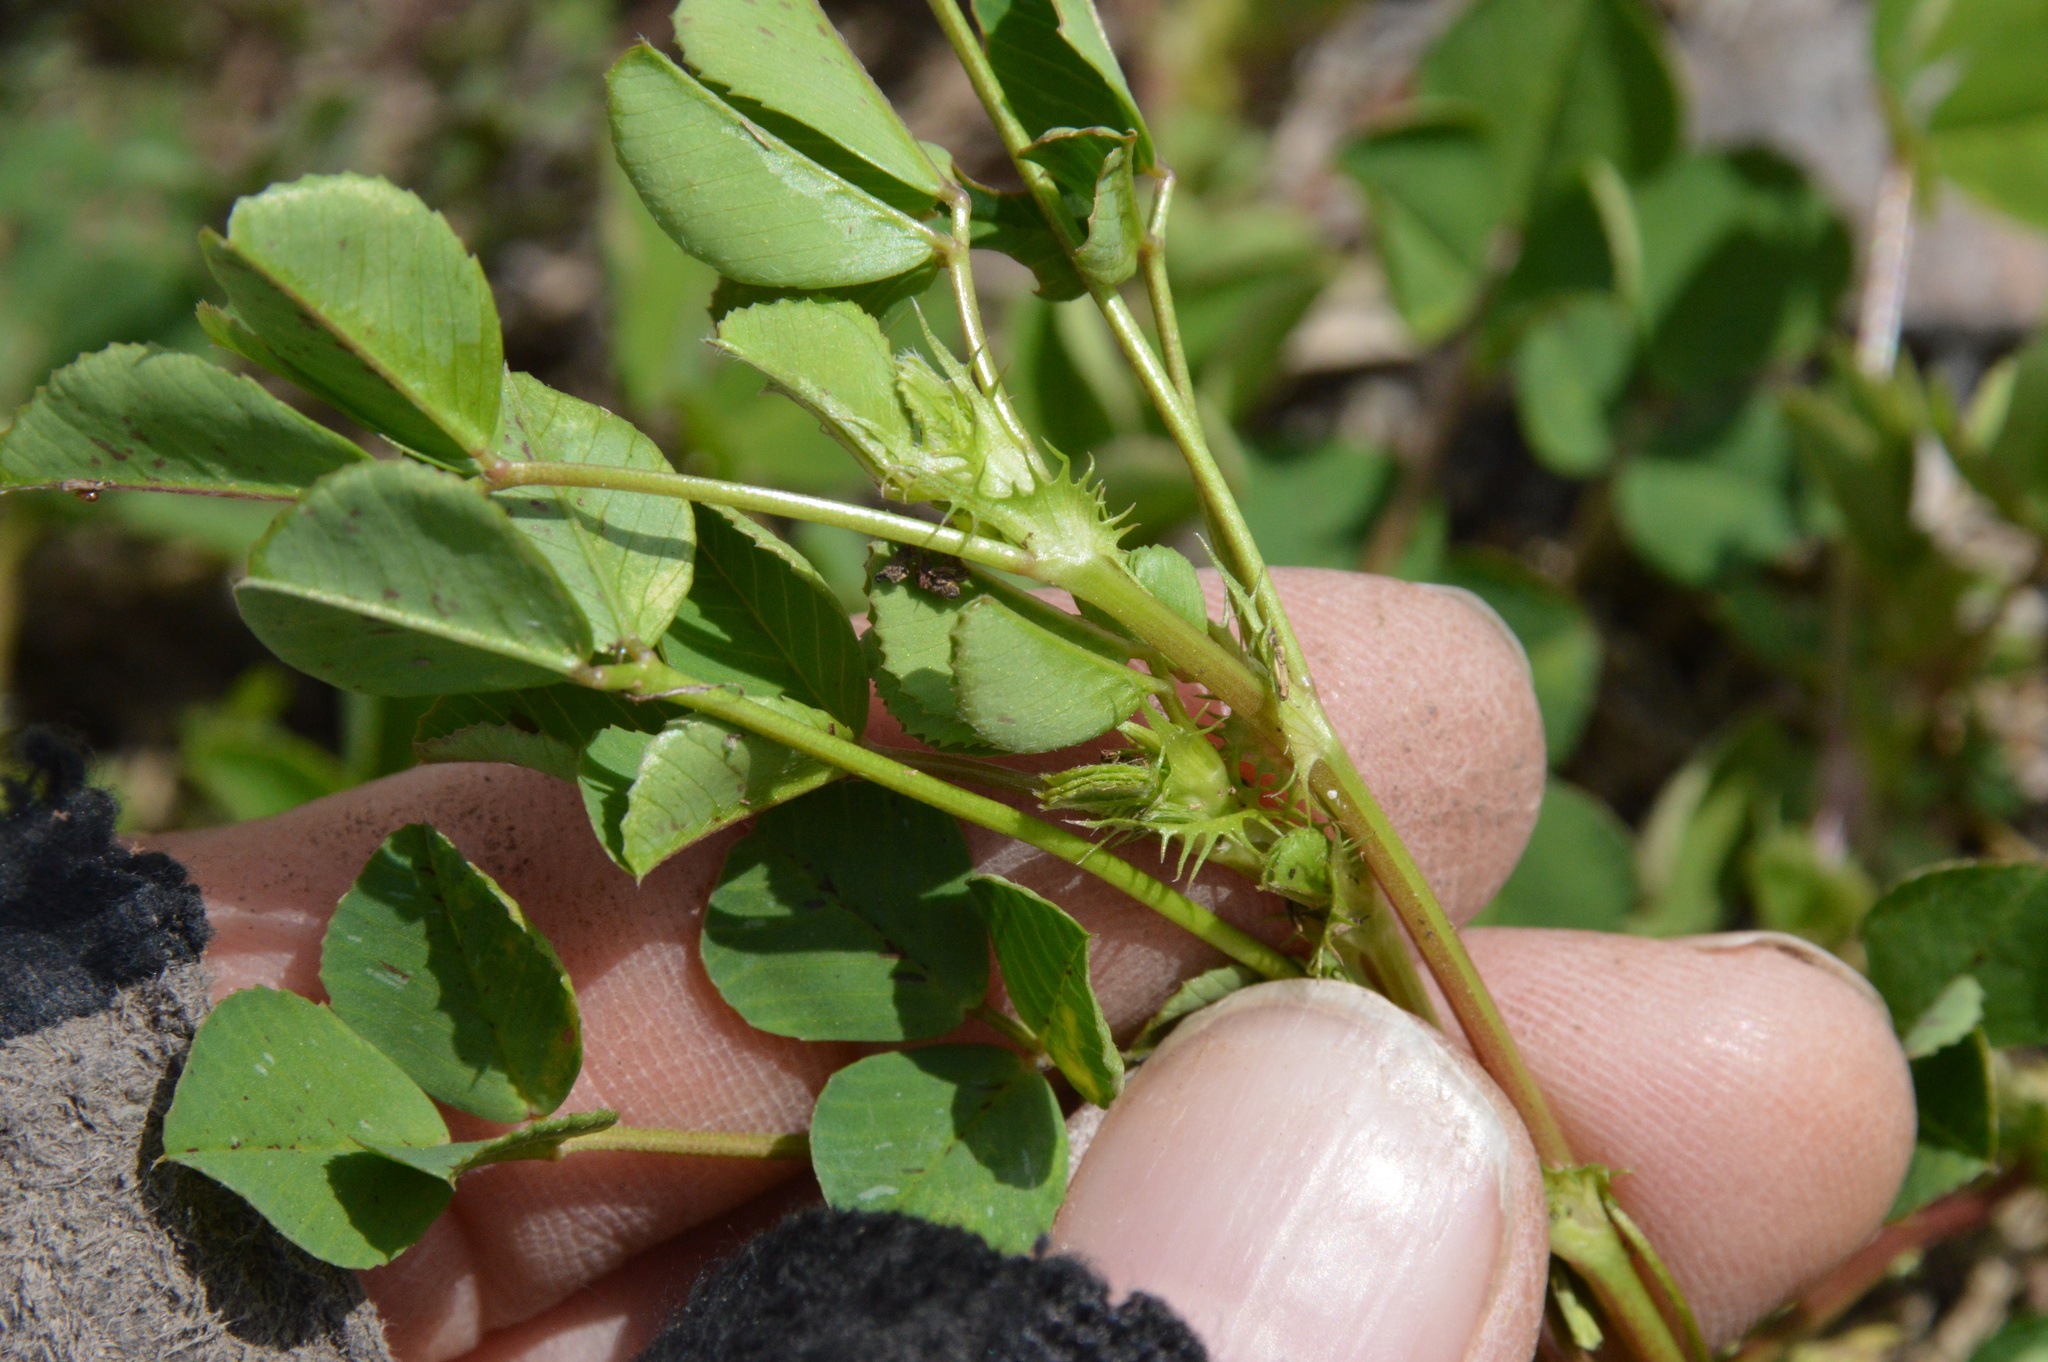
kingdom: Plantae
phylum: Tracheophyta
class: Magnoliopsida
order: Fabales
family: Fabaceae
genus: Medicago
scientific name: Medicago polymorpha
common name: Burclover
